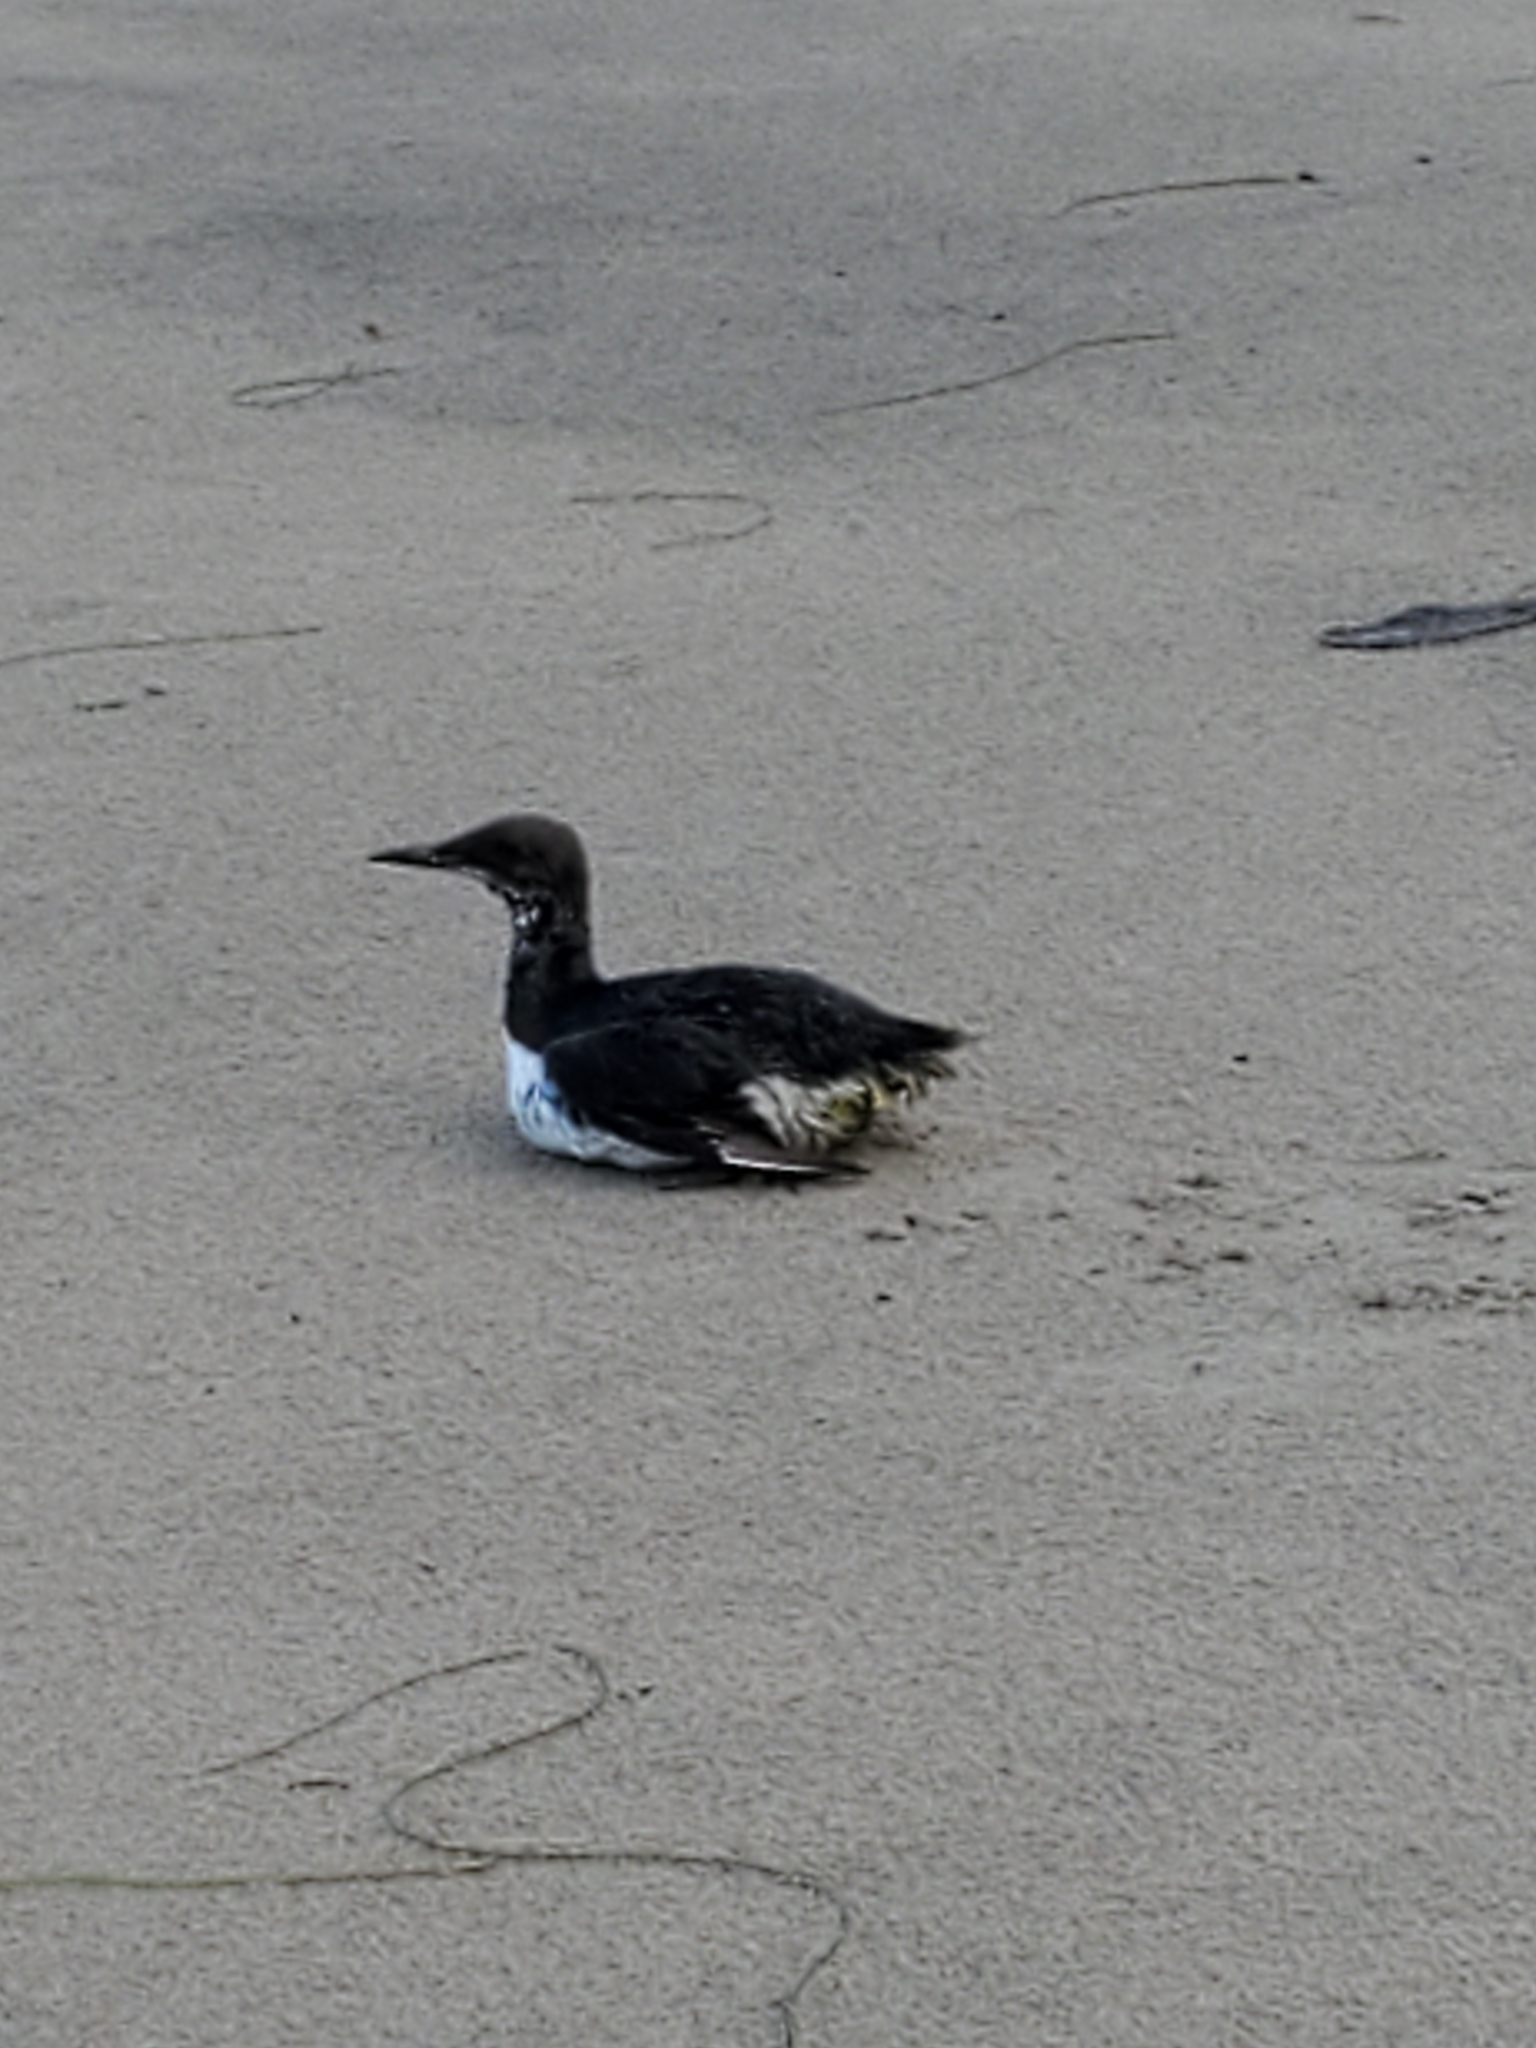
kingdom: Animalia
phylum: Chordata
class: Aves
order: Charadriiformes
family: Alcidae
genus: Uria
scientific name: Uria aalge
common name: Common murre
